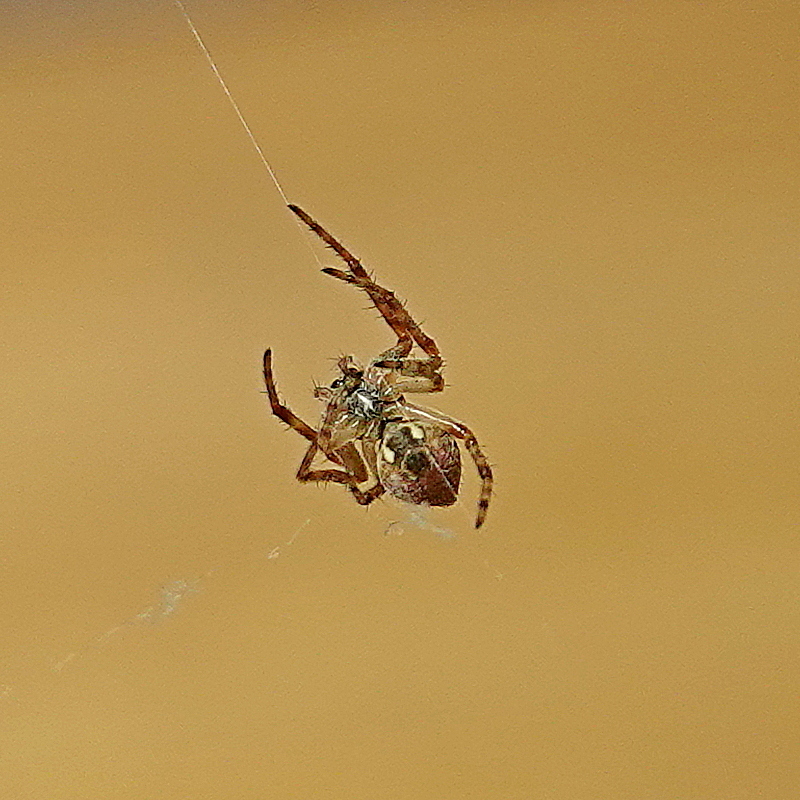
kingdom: Animalia
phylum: Arthropoda
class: Arachnida
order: Araneae
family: Araneidae
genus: Salsa
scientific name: Salsa
